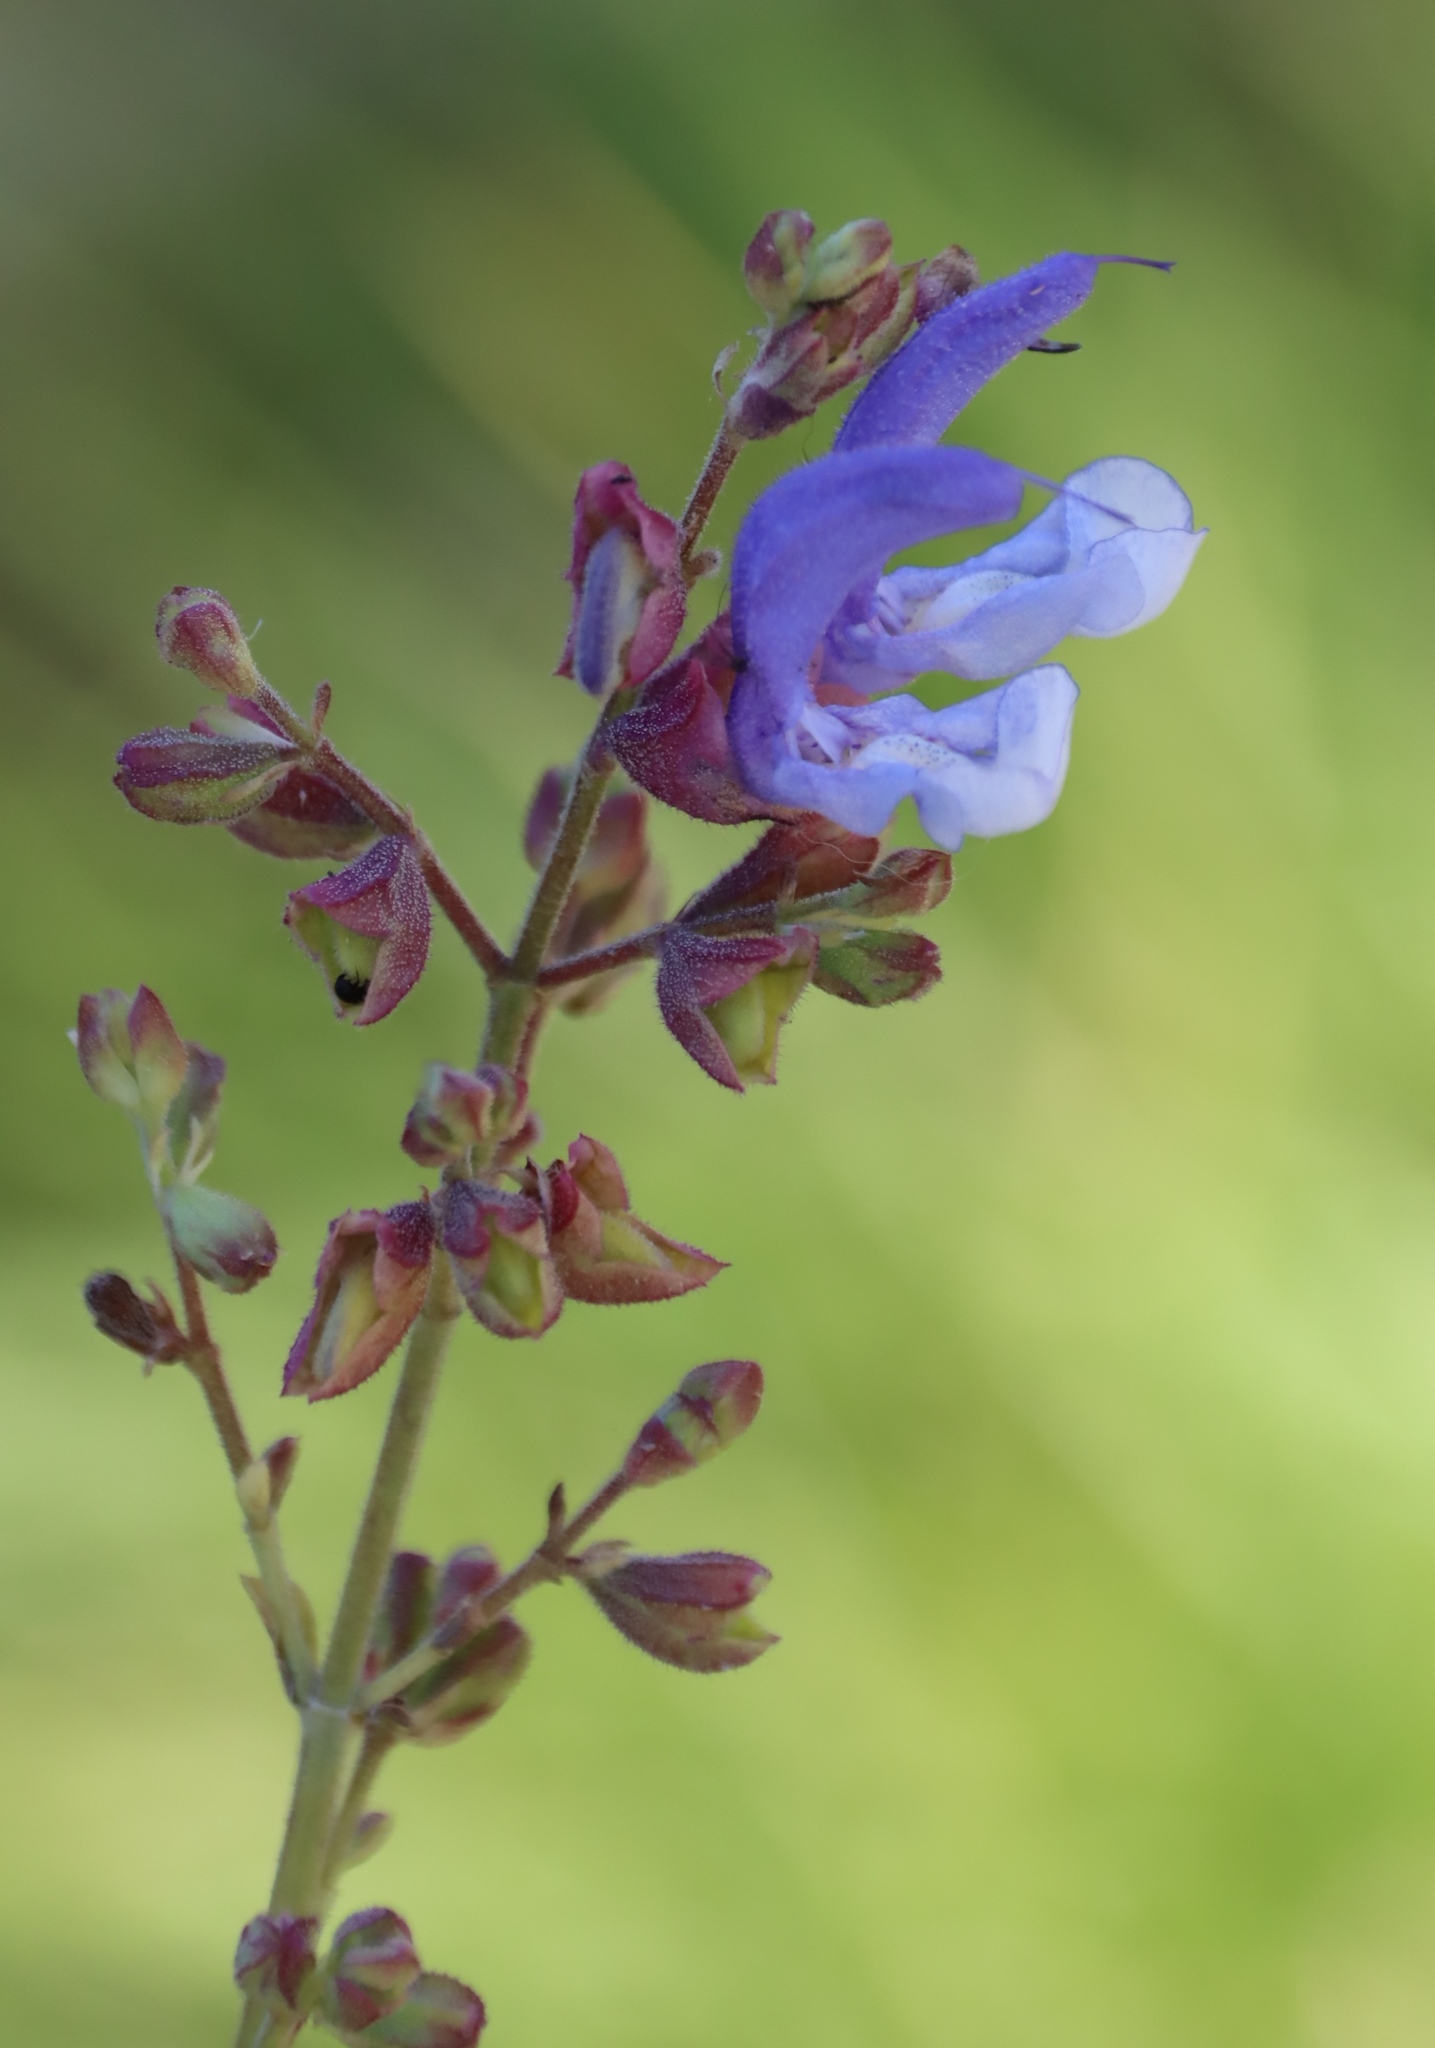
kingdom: Plantae
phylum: Tracheophyta
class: Magnoliopsida
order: Lamiales
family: Lamiaceae
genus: Salvia
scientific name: Salvia africana
